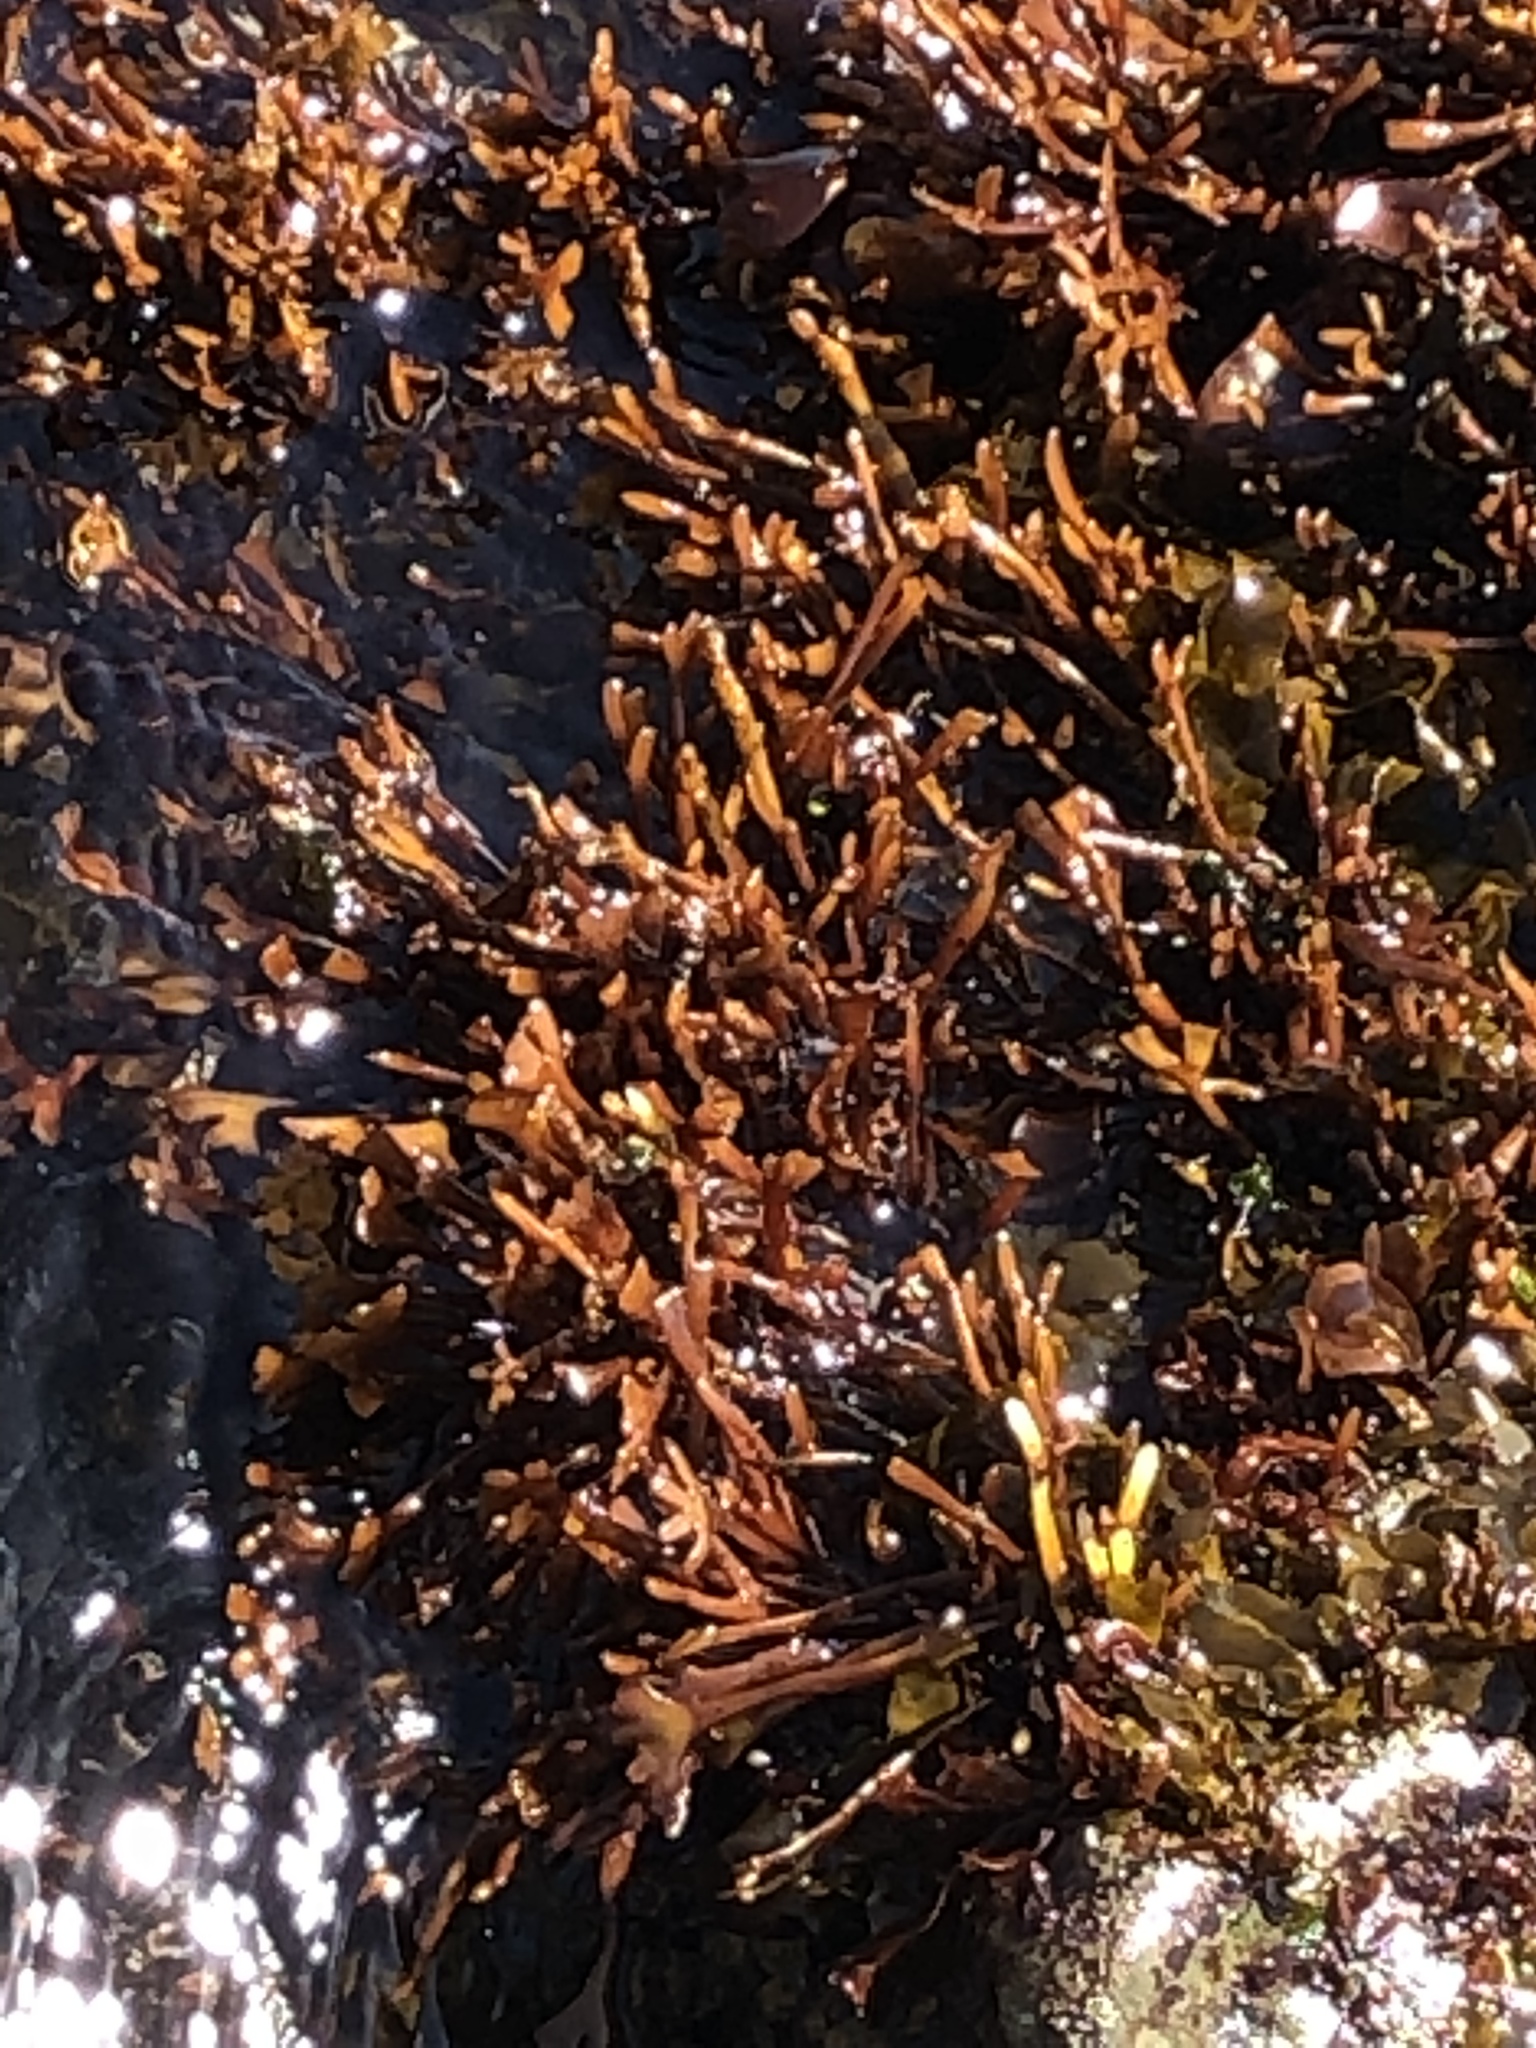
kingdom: Plantae
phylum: Rhodophyta
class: Florideophyceae
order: Gigartinales
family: Phyllophoraceae
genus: Ahnfeltiopsis
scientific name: Ahnfeltiopsis linearis
